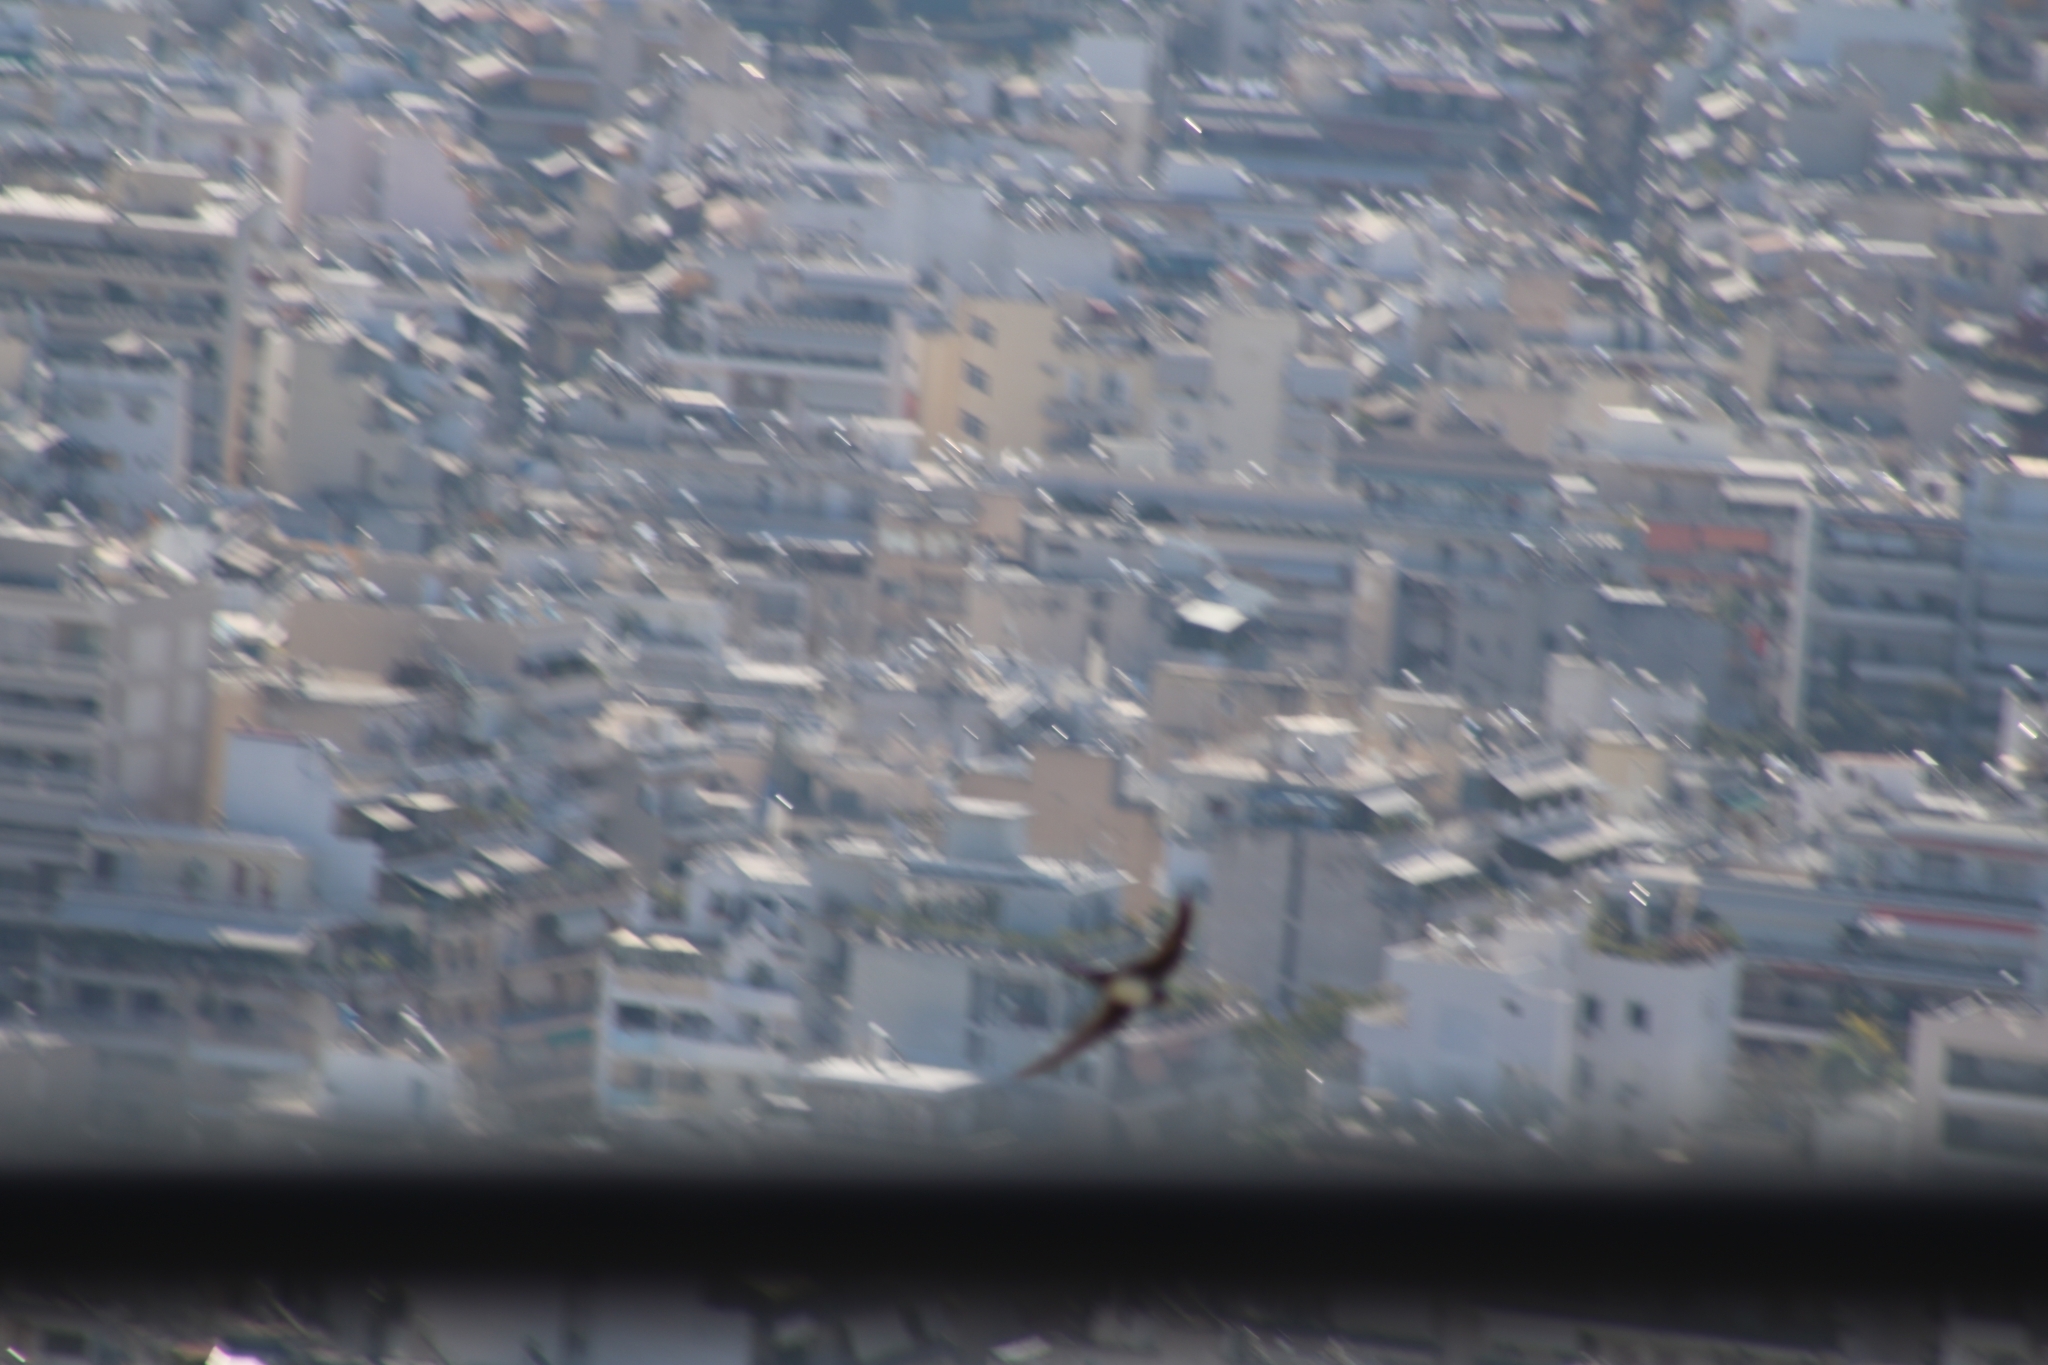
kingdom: Animalia
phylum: Chordata
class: Aves
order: Apodiformes
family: Apodidae
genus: Tachymarptis
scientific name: Tachymarptis melba
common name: Alpine swift
